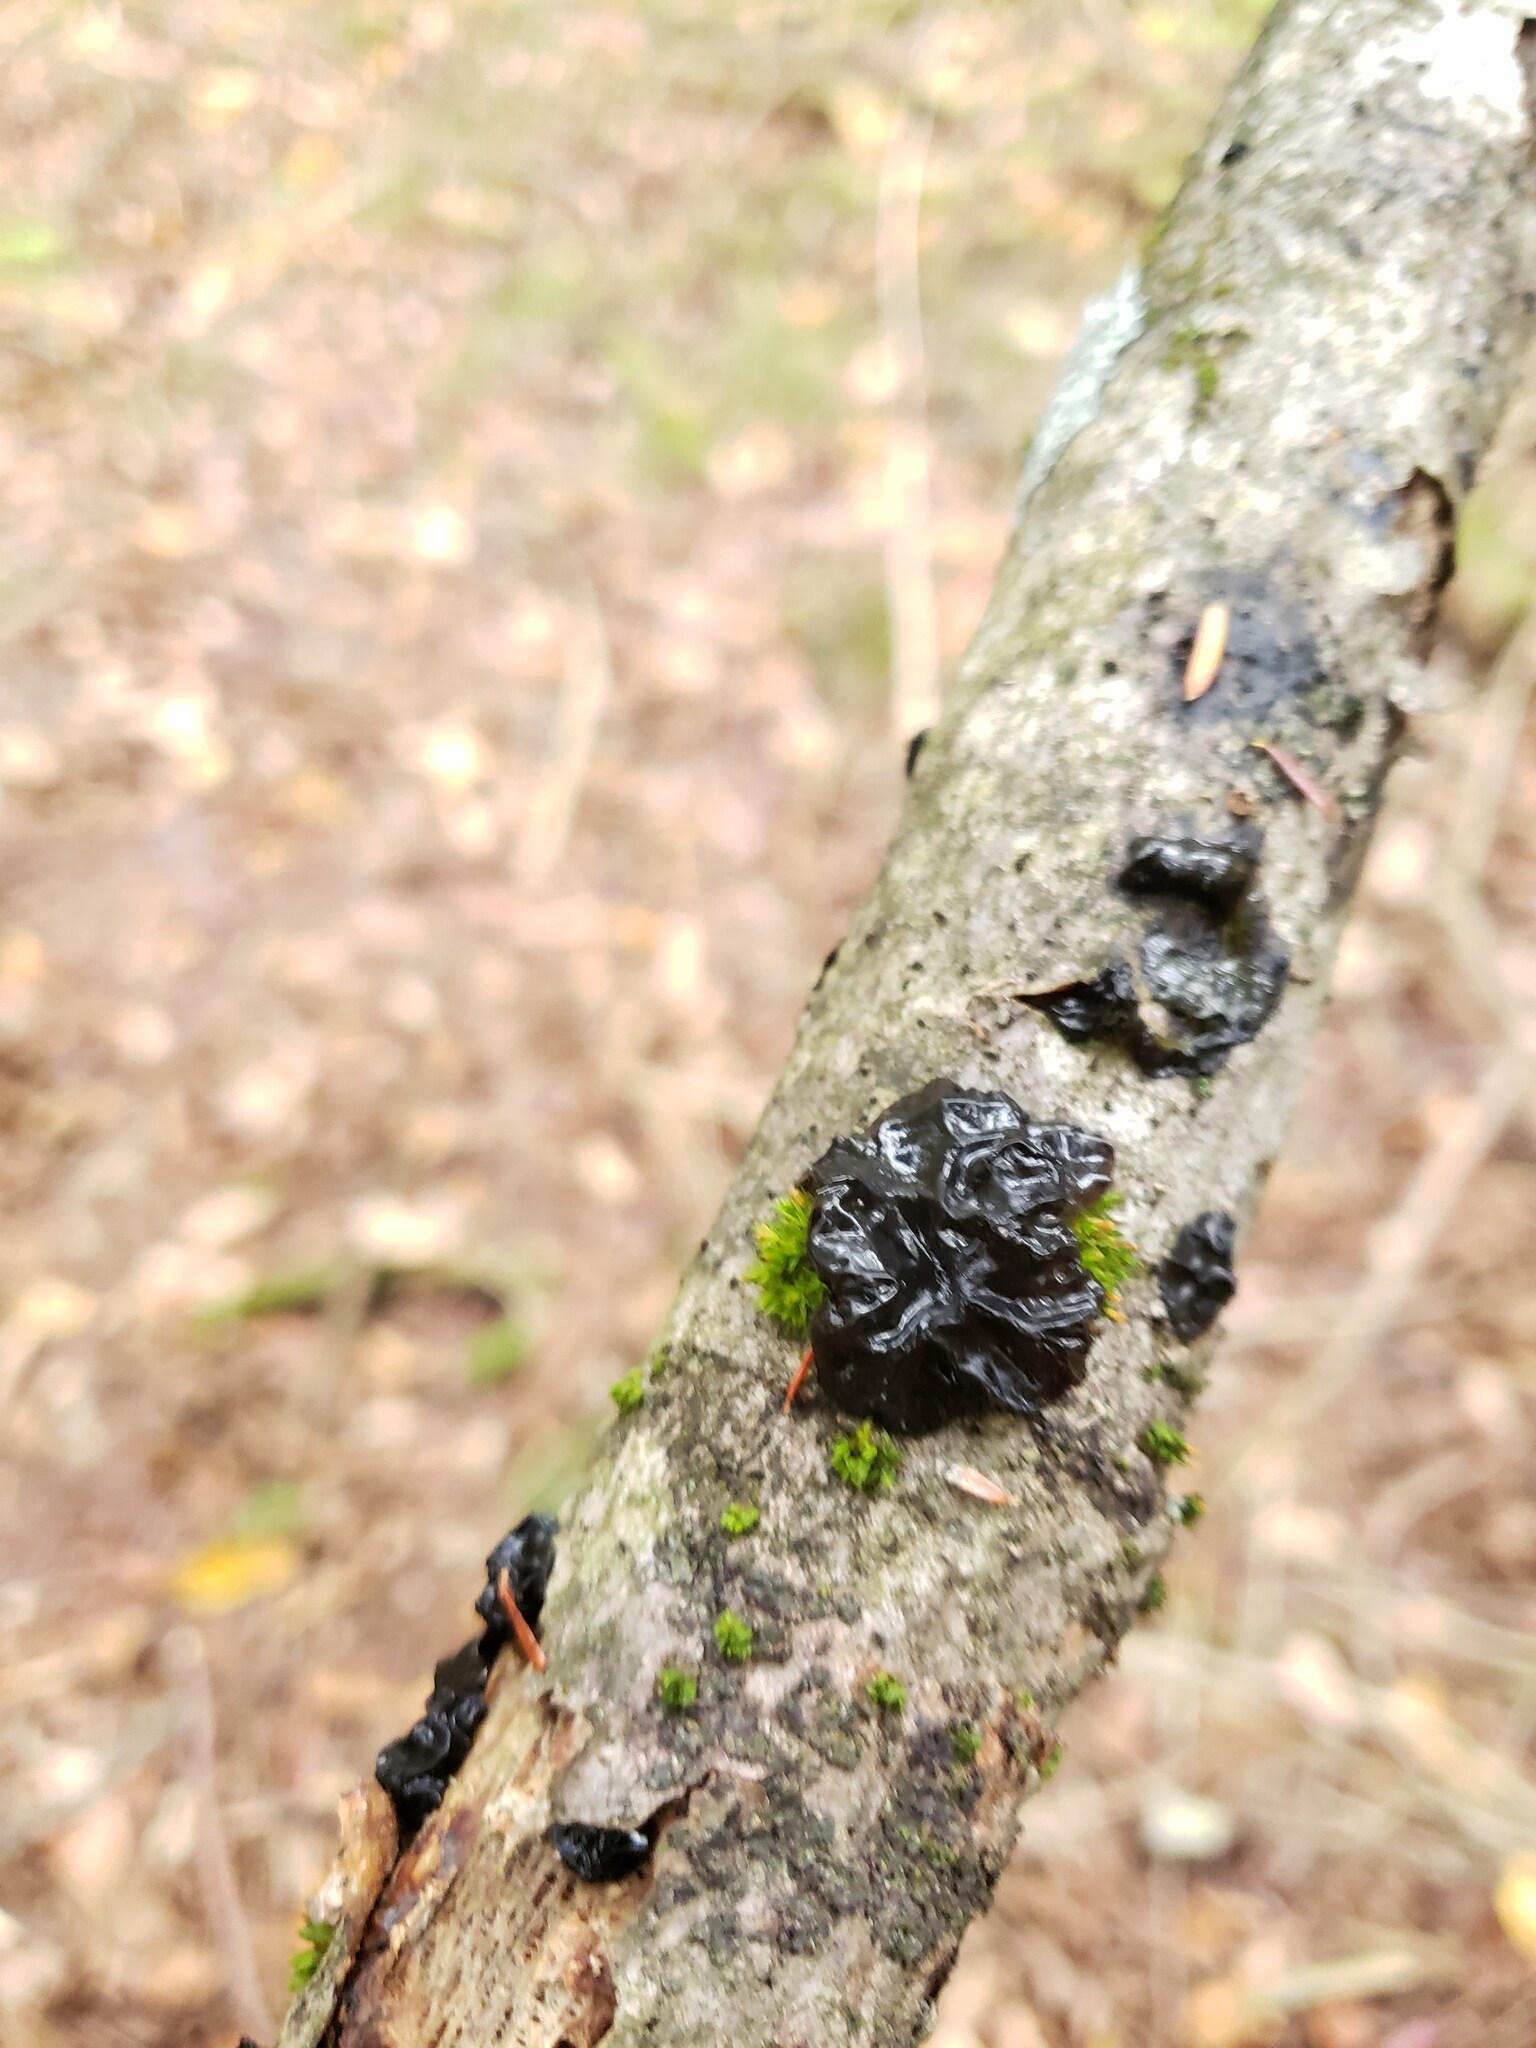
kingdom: Fungi
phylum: Basidiomycota
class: Agaricomycetes
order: Auriculariales
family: Auriculariaceae
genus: Exidia
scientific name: Exidia glandulosa
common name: Witches' butter
